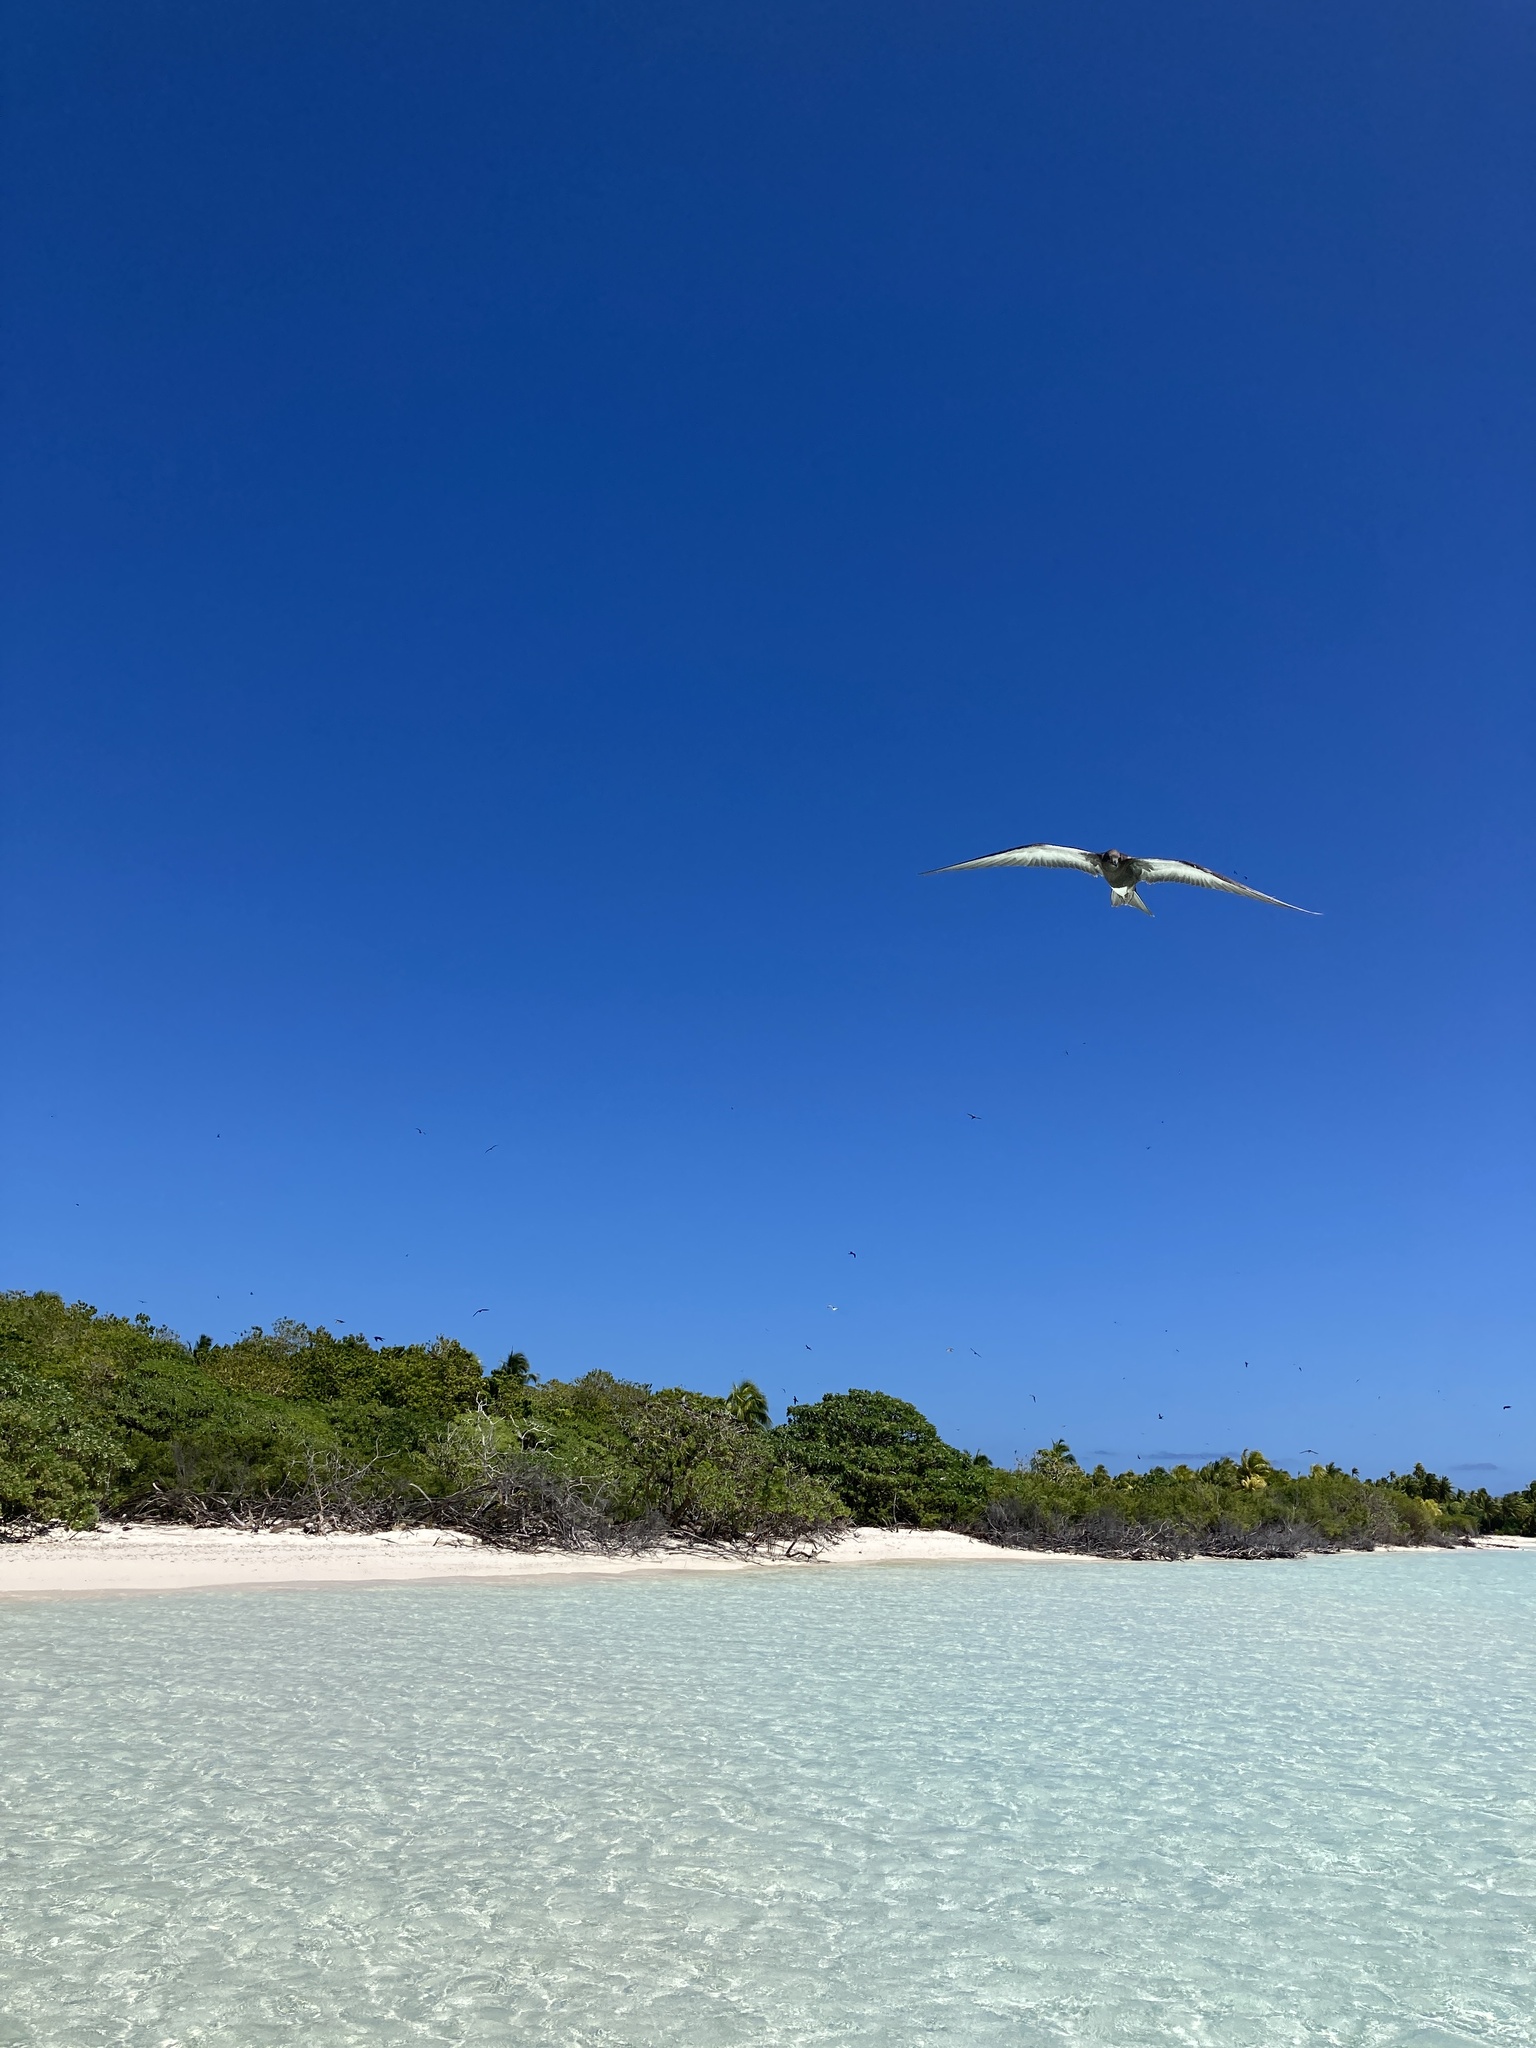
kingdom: Animalia
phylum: Chordata
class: Aves
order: Charadriiformes
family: Laridae
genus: Onychoprion
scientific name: Onychoprion fuscatus
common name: Sooty tern
